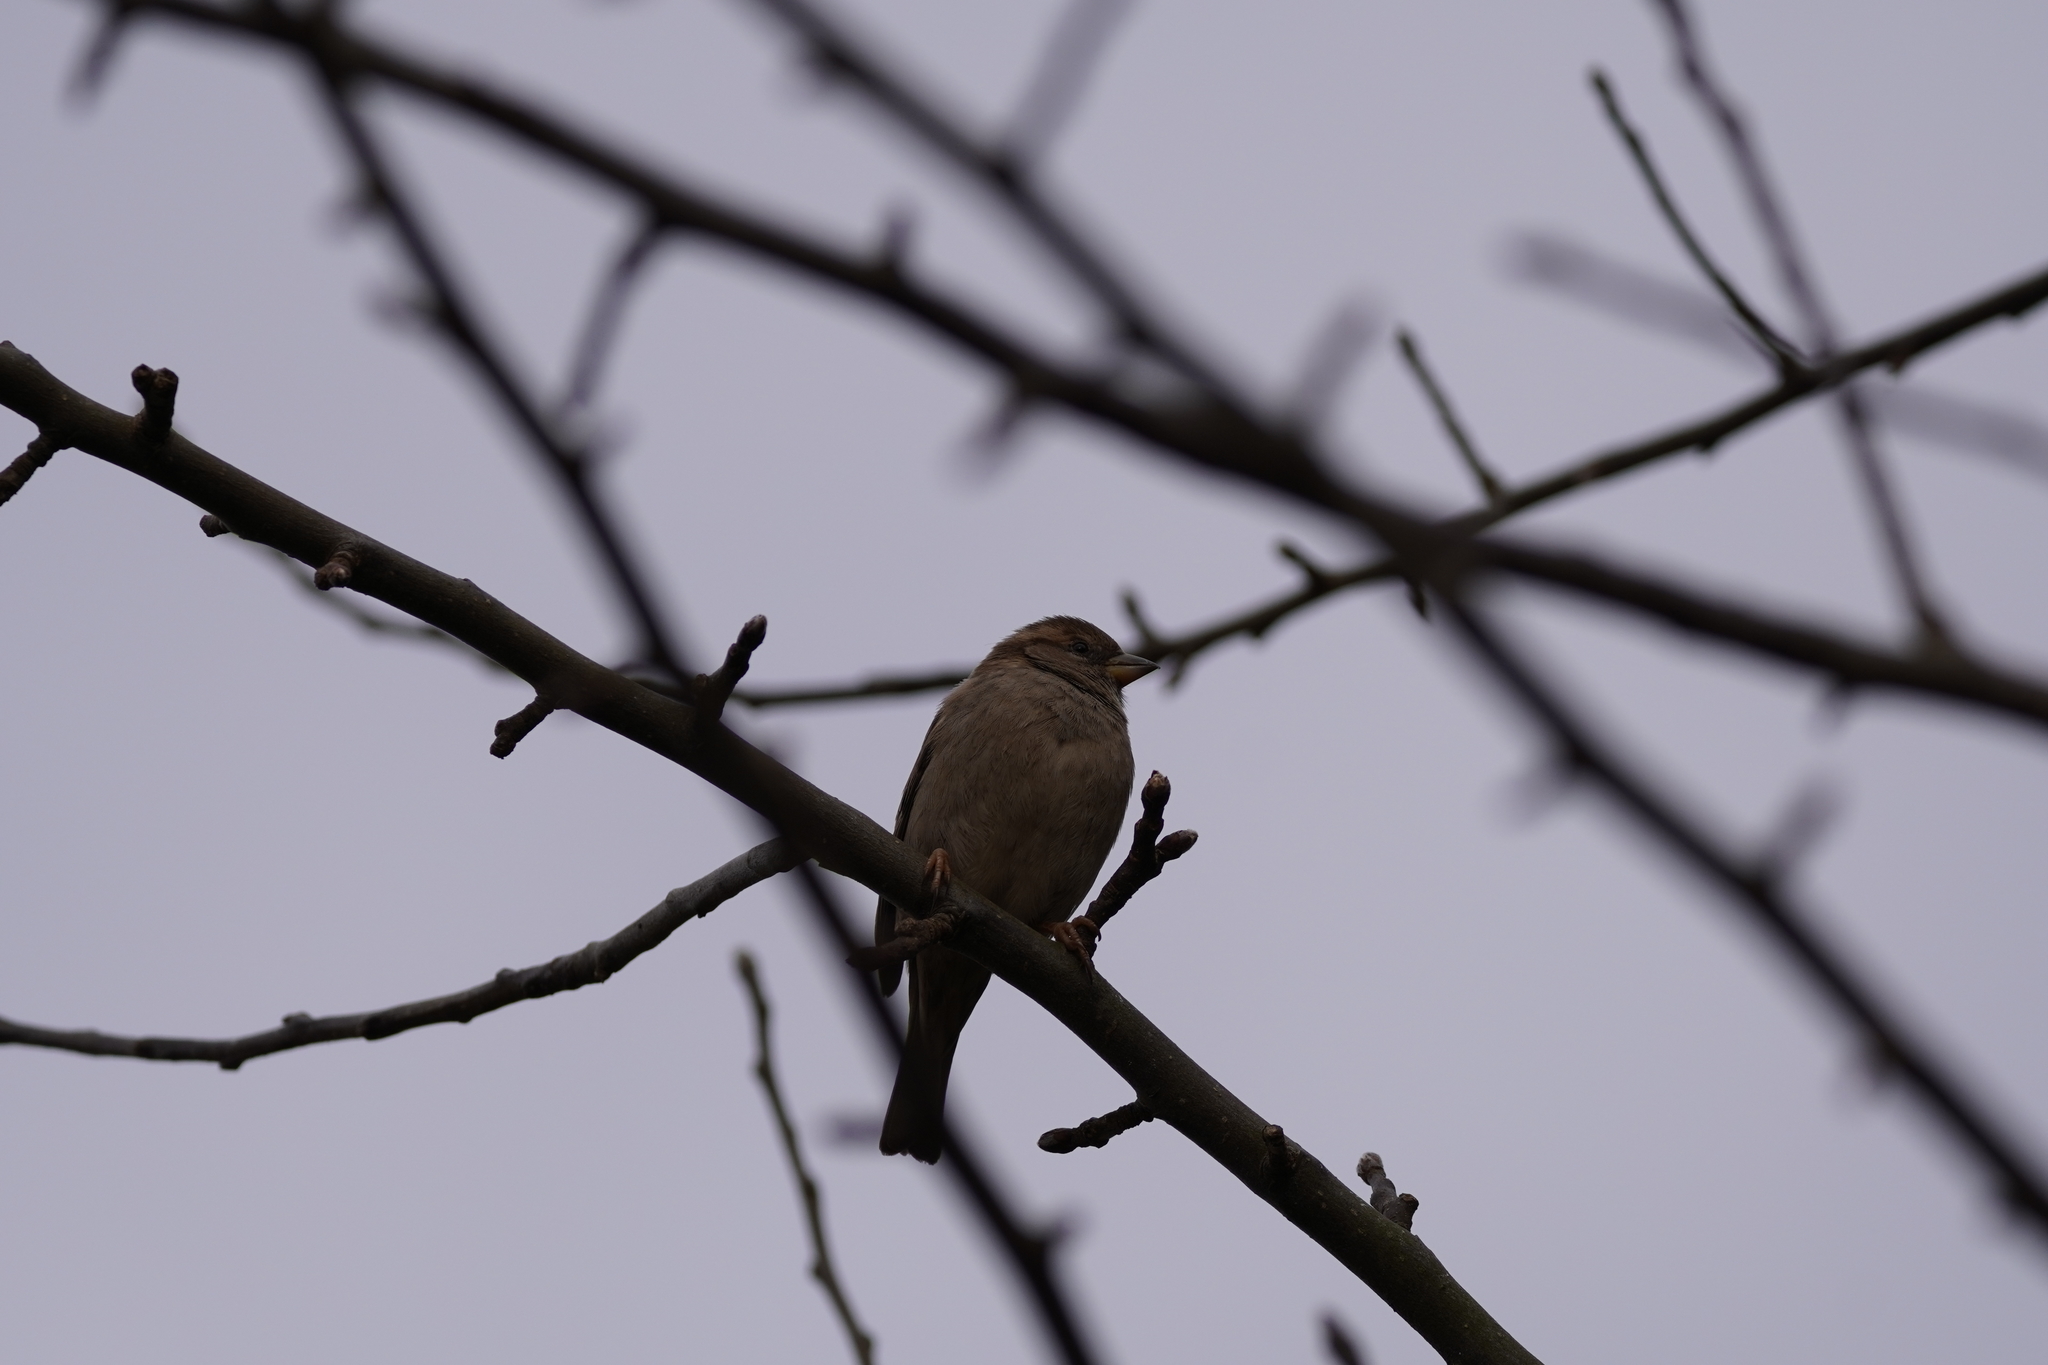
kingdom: Animalia
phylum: Chordata
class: Aves
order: Passeriformes
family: Passeridae
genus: Passer
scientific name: Passer domesticus
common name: House sparrow
